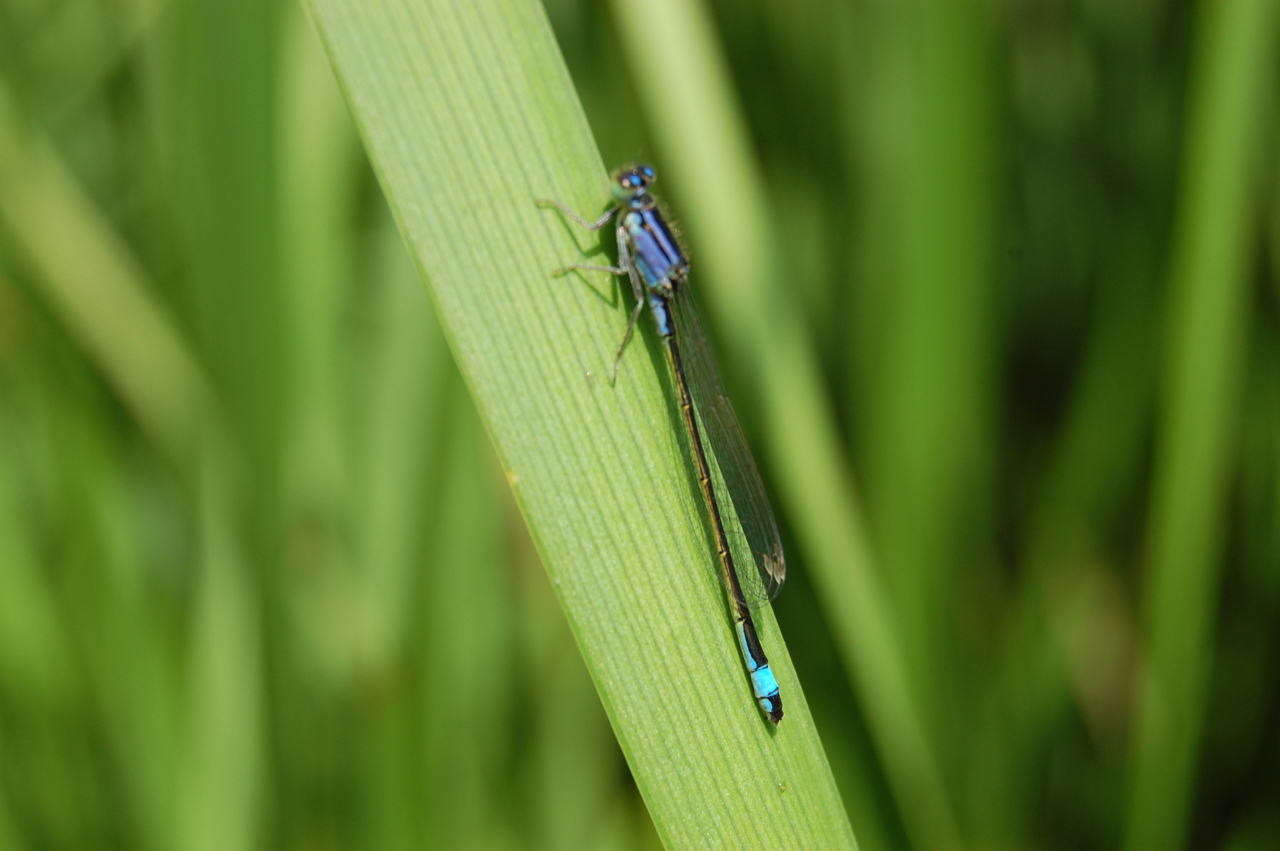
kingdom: Animalia
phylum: Arthropoda
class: Insecta
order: Odonata
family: Coenagrionidae
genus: Ischnura
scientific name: Ischnura elegans
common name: Blue-tailed damselfly
